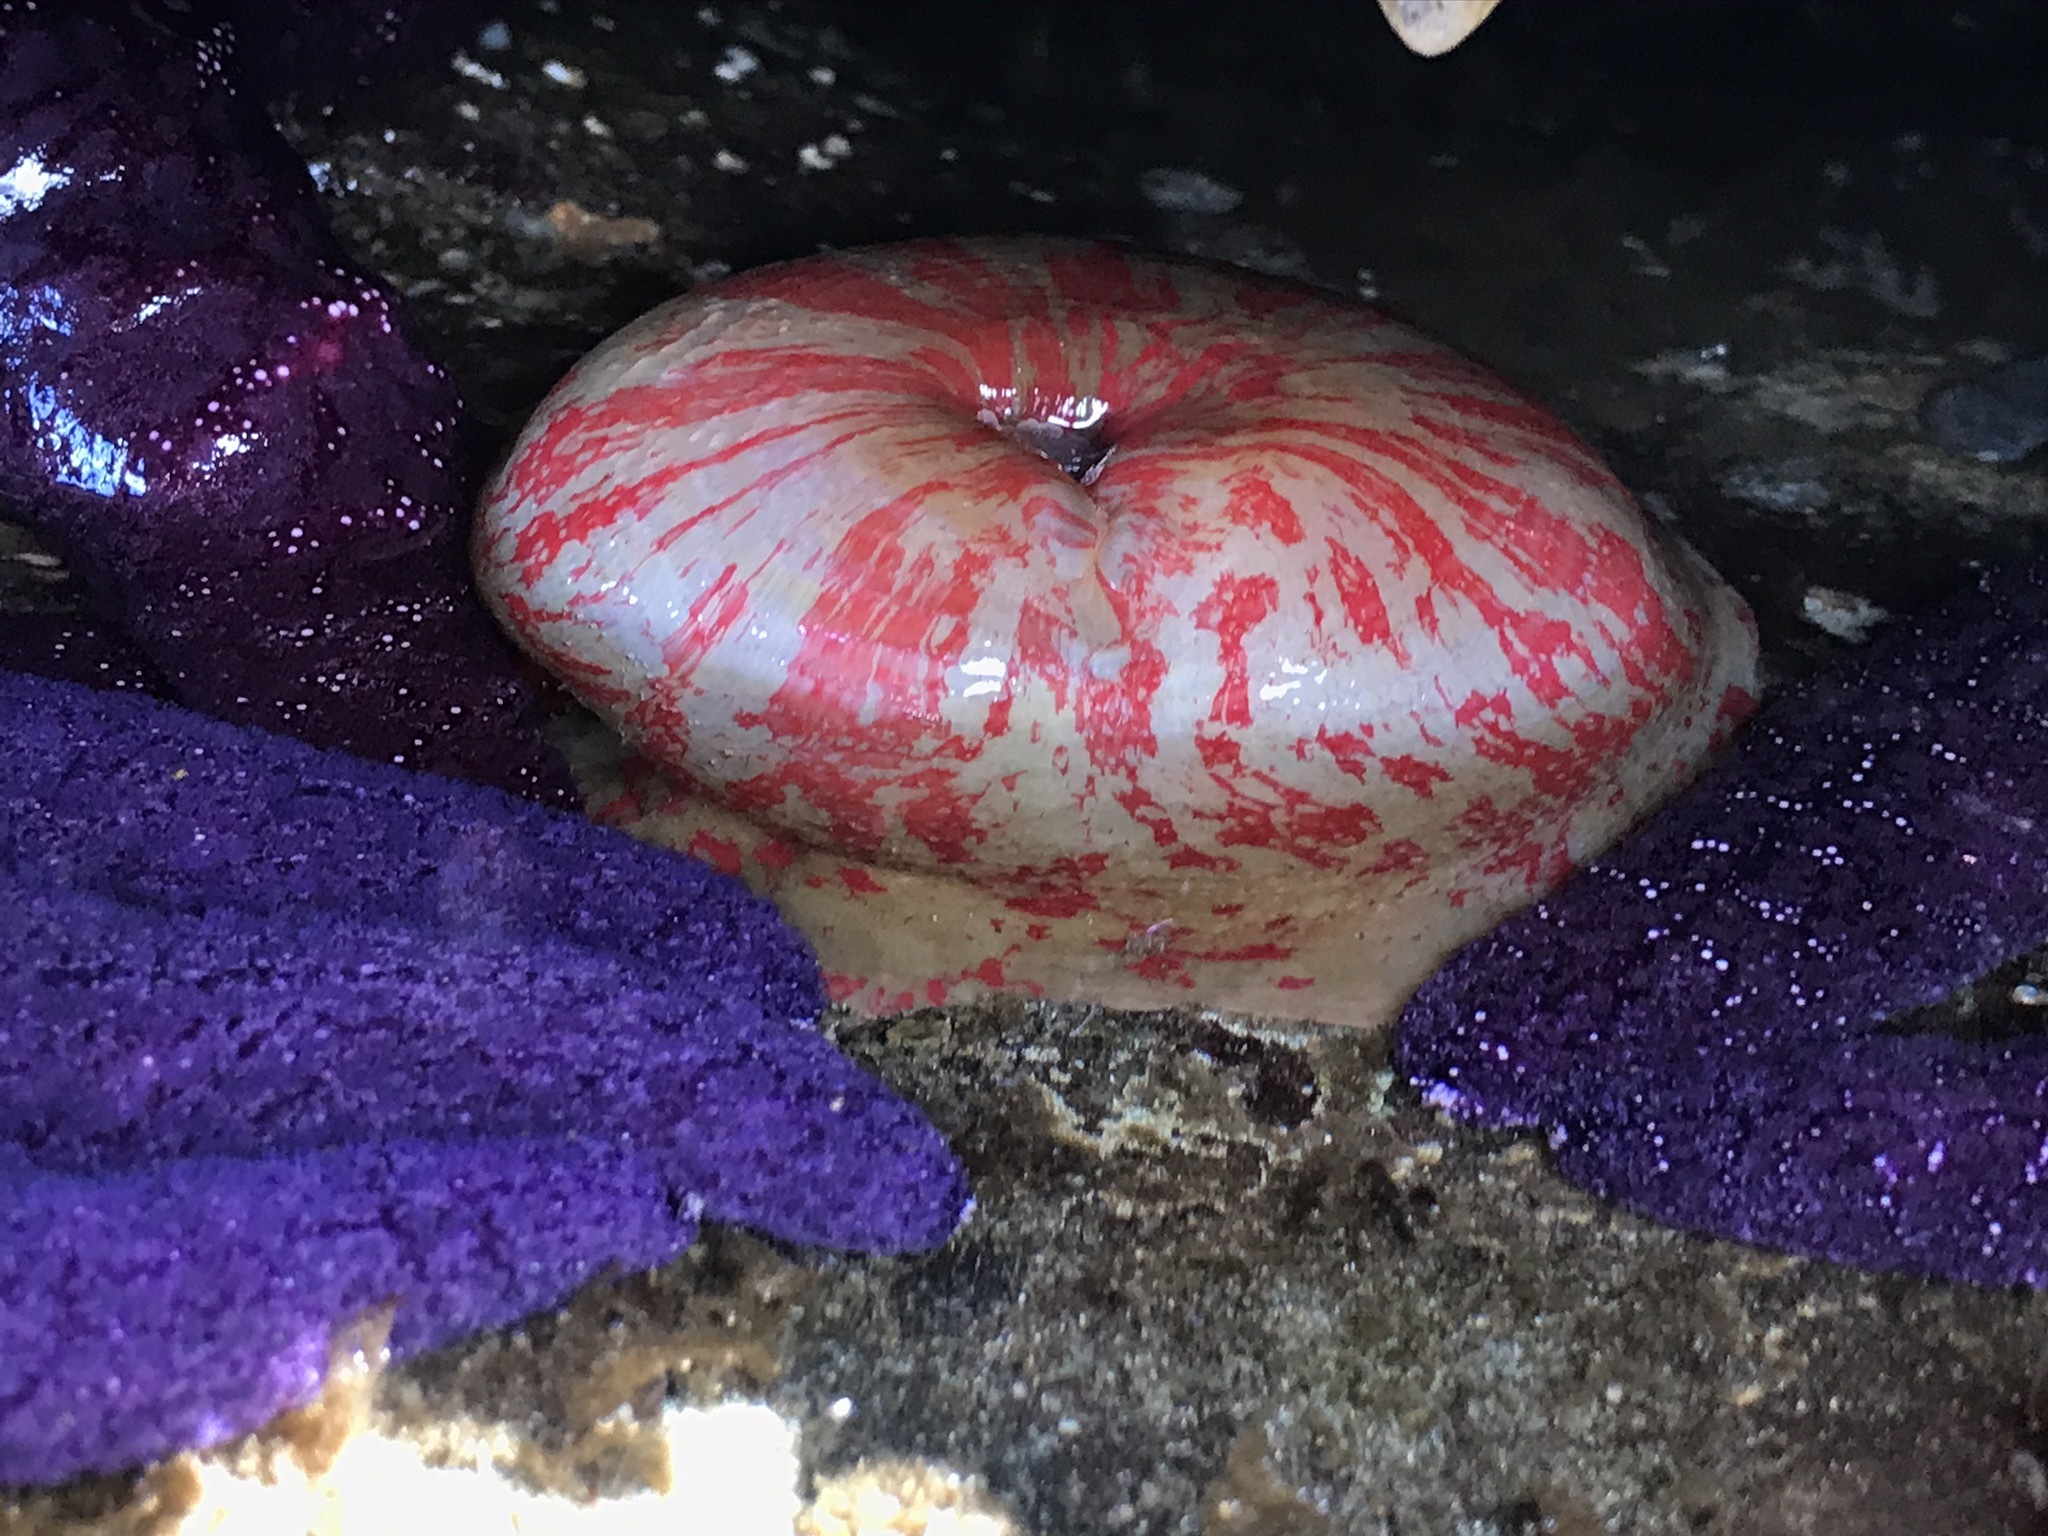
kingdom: Animalia
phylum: Cnidaria
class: Anthozoa
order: Actiniaria
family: Actiniidae
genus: Urticina
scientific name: Urticina grebelnyi
